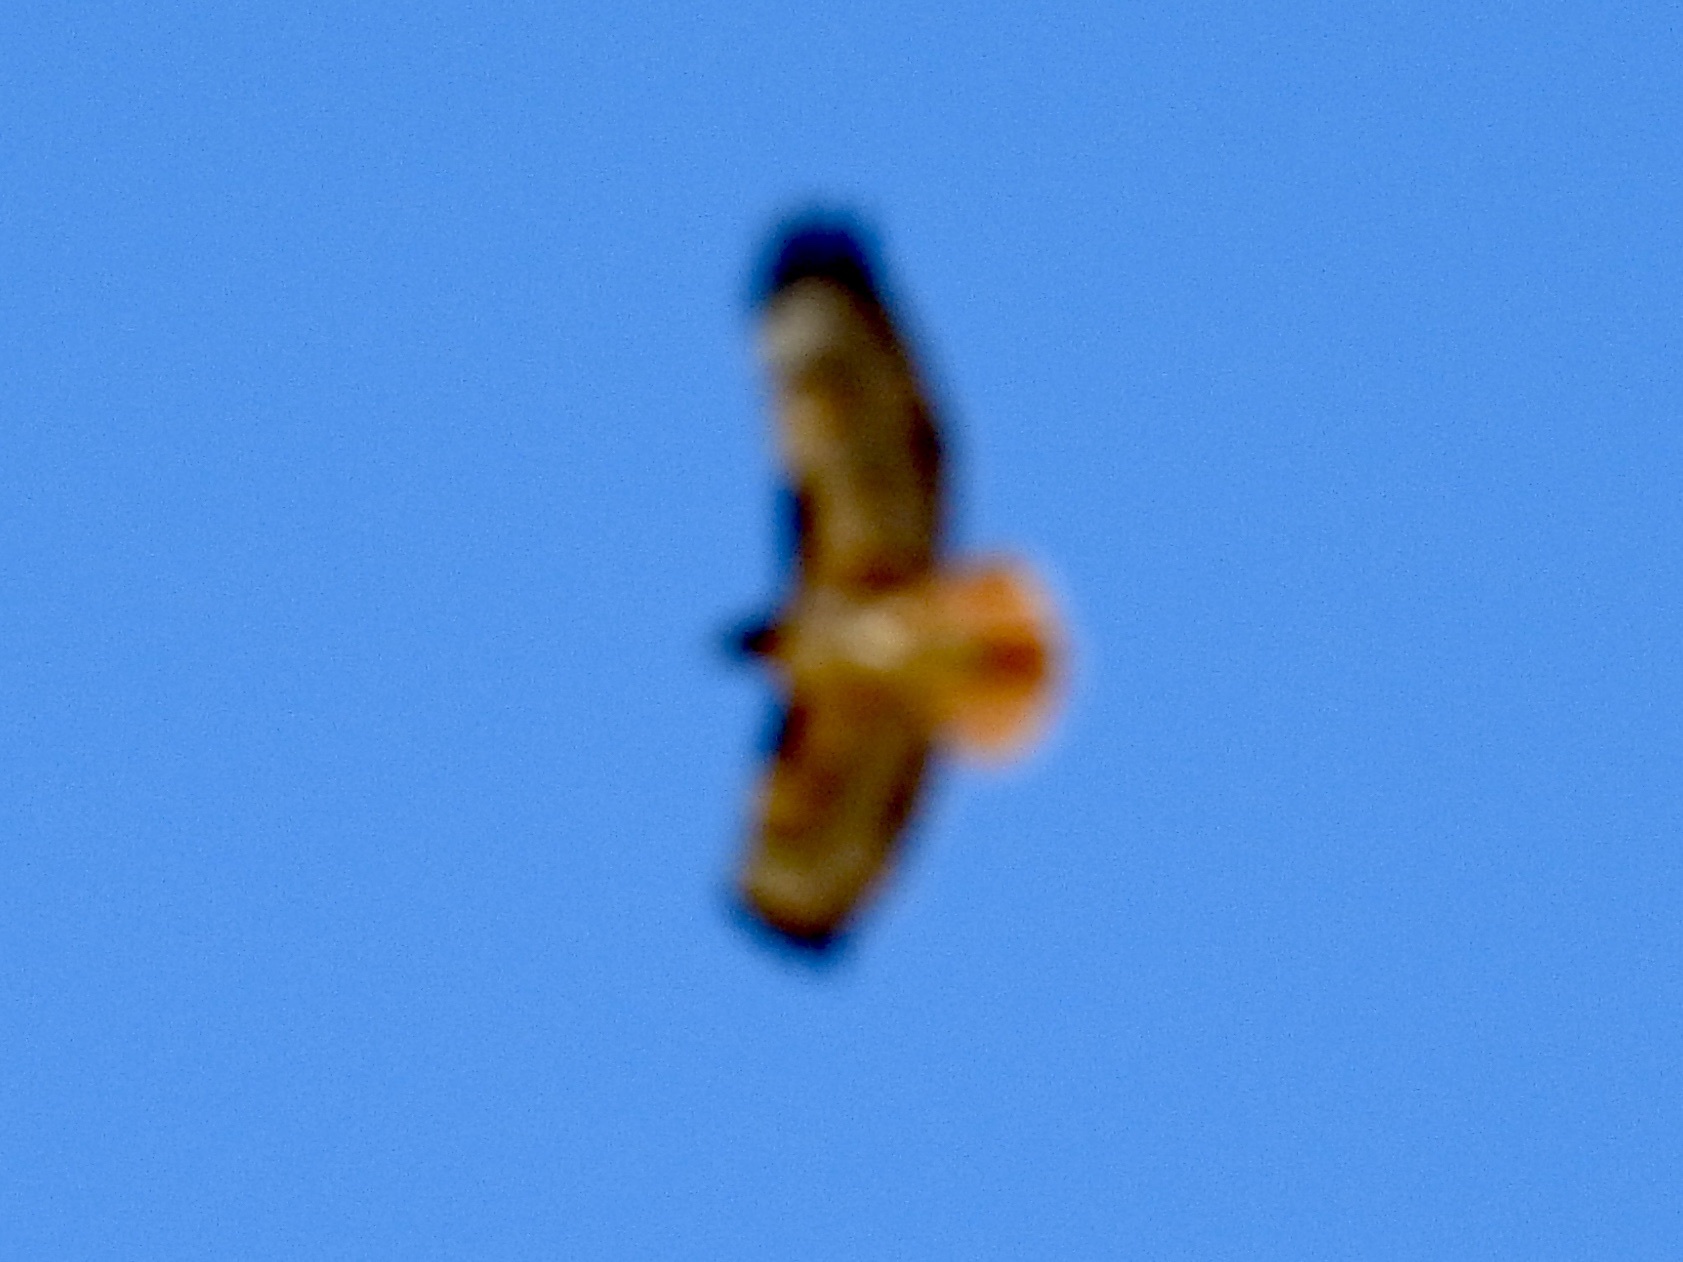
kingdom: Animalia
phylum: Chordata
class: Aves
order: Accipitriformes
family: Accipitridae
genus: Buteo
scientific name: Buteo jamaicensis
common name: Red-tailed hawk
